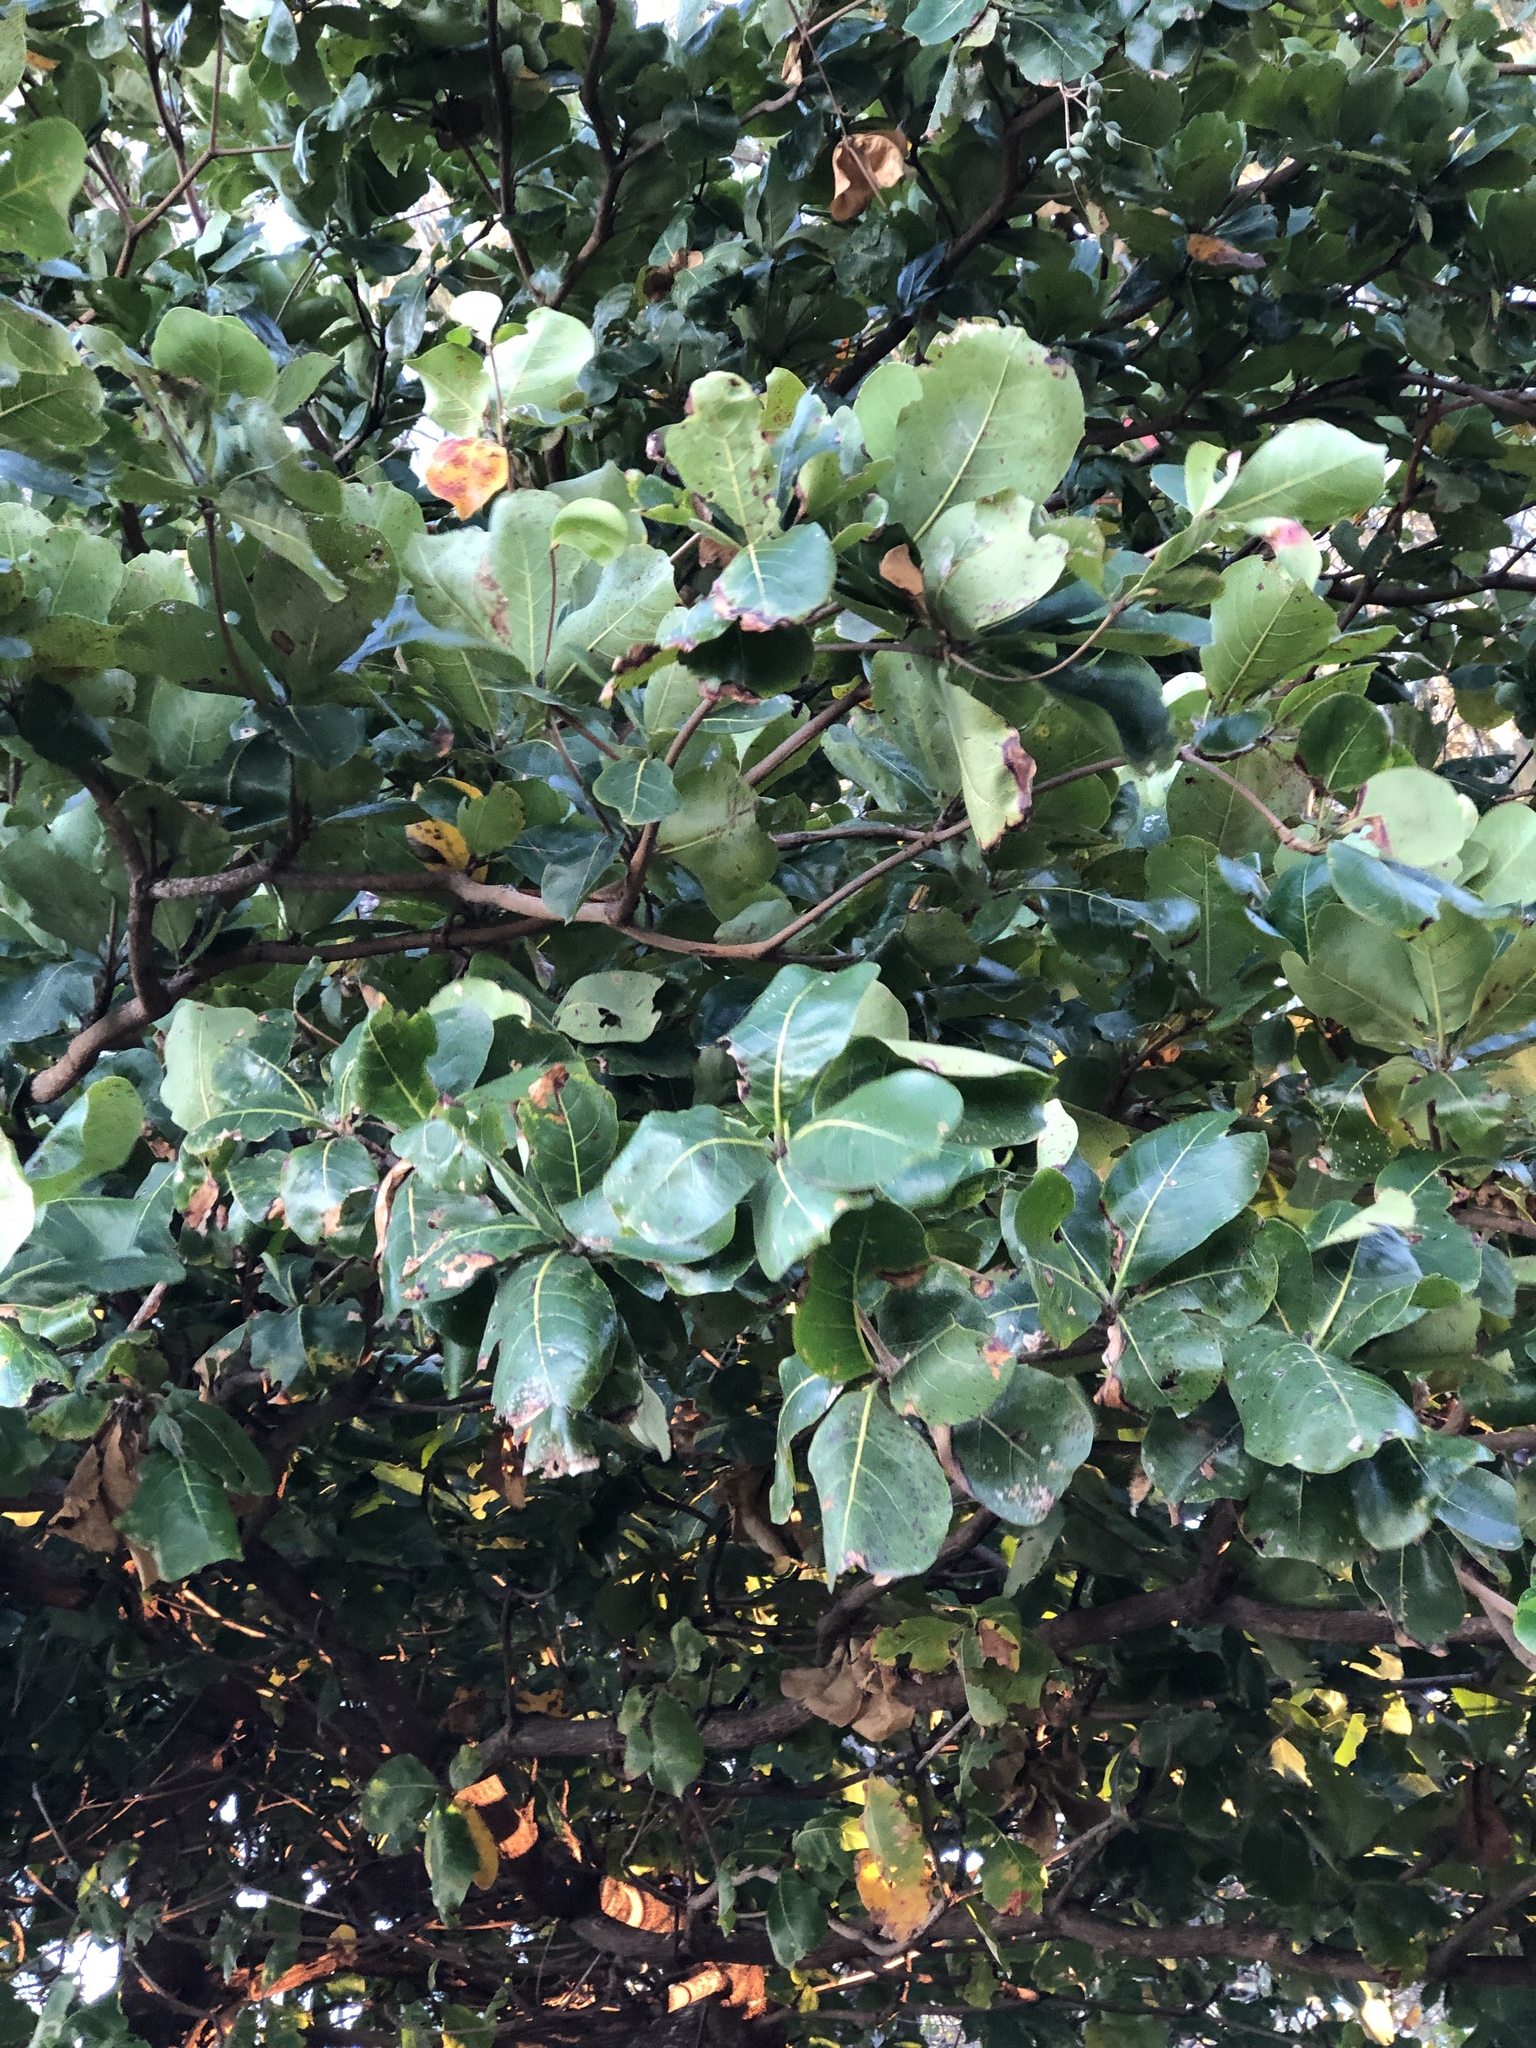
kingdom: Plantae
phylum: Tracheophyta
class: Magnoliopsida
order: Myrtales
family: Combretaceae
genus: Terminalia
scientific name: Terminalia catappa
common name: Tropical almond
